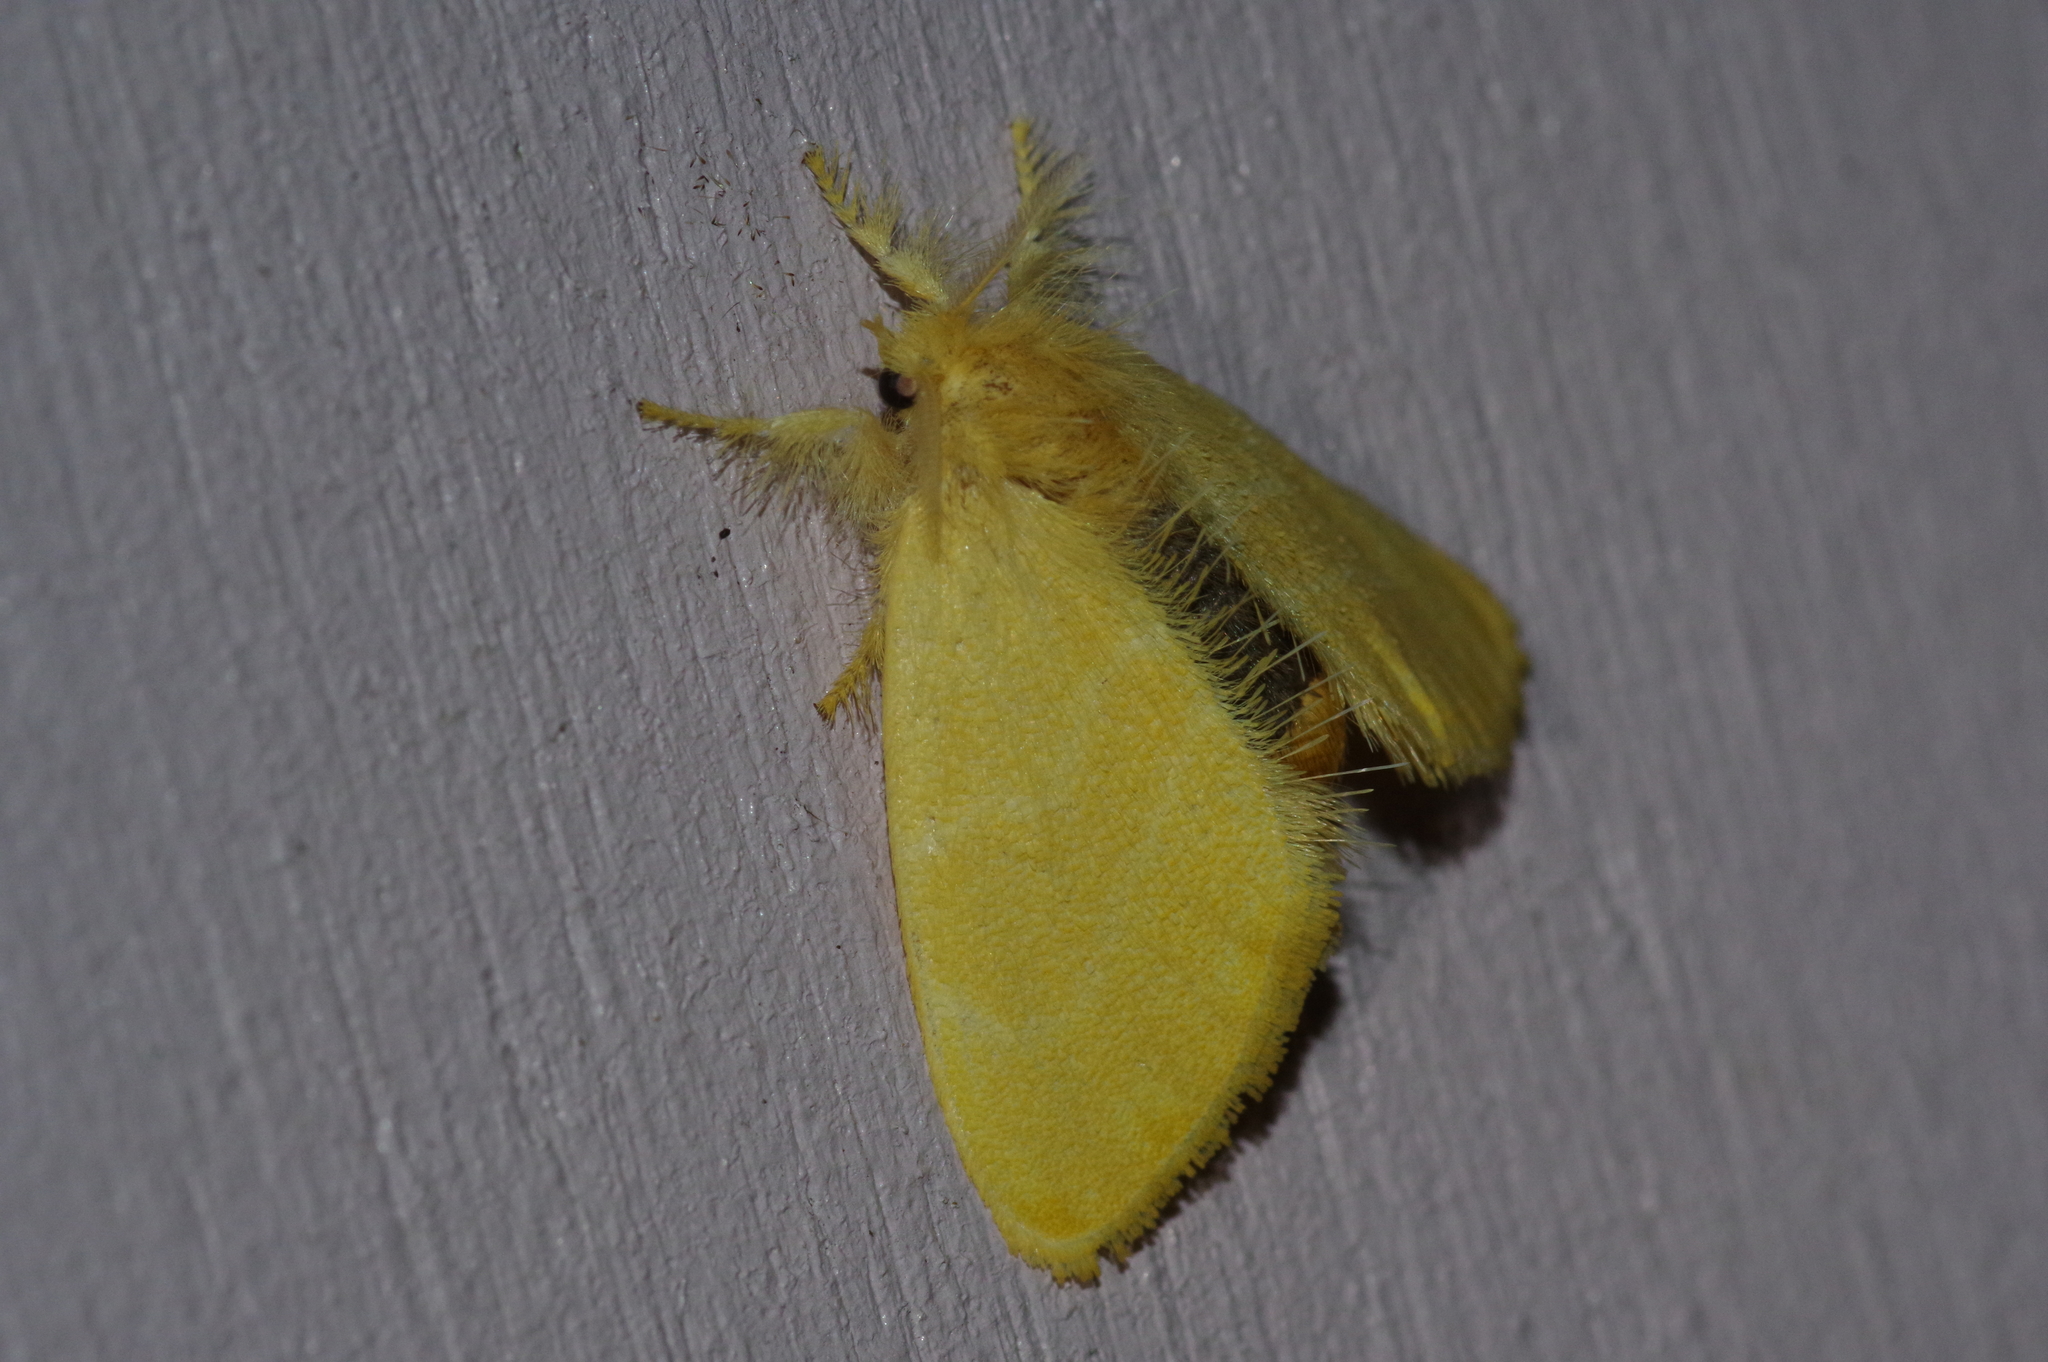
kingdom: Animalia
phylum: Arthropoda
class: Insecta
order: Lepidoptera
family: Erebidae
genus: Euproctis
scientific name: Euproctis taiwana
